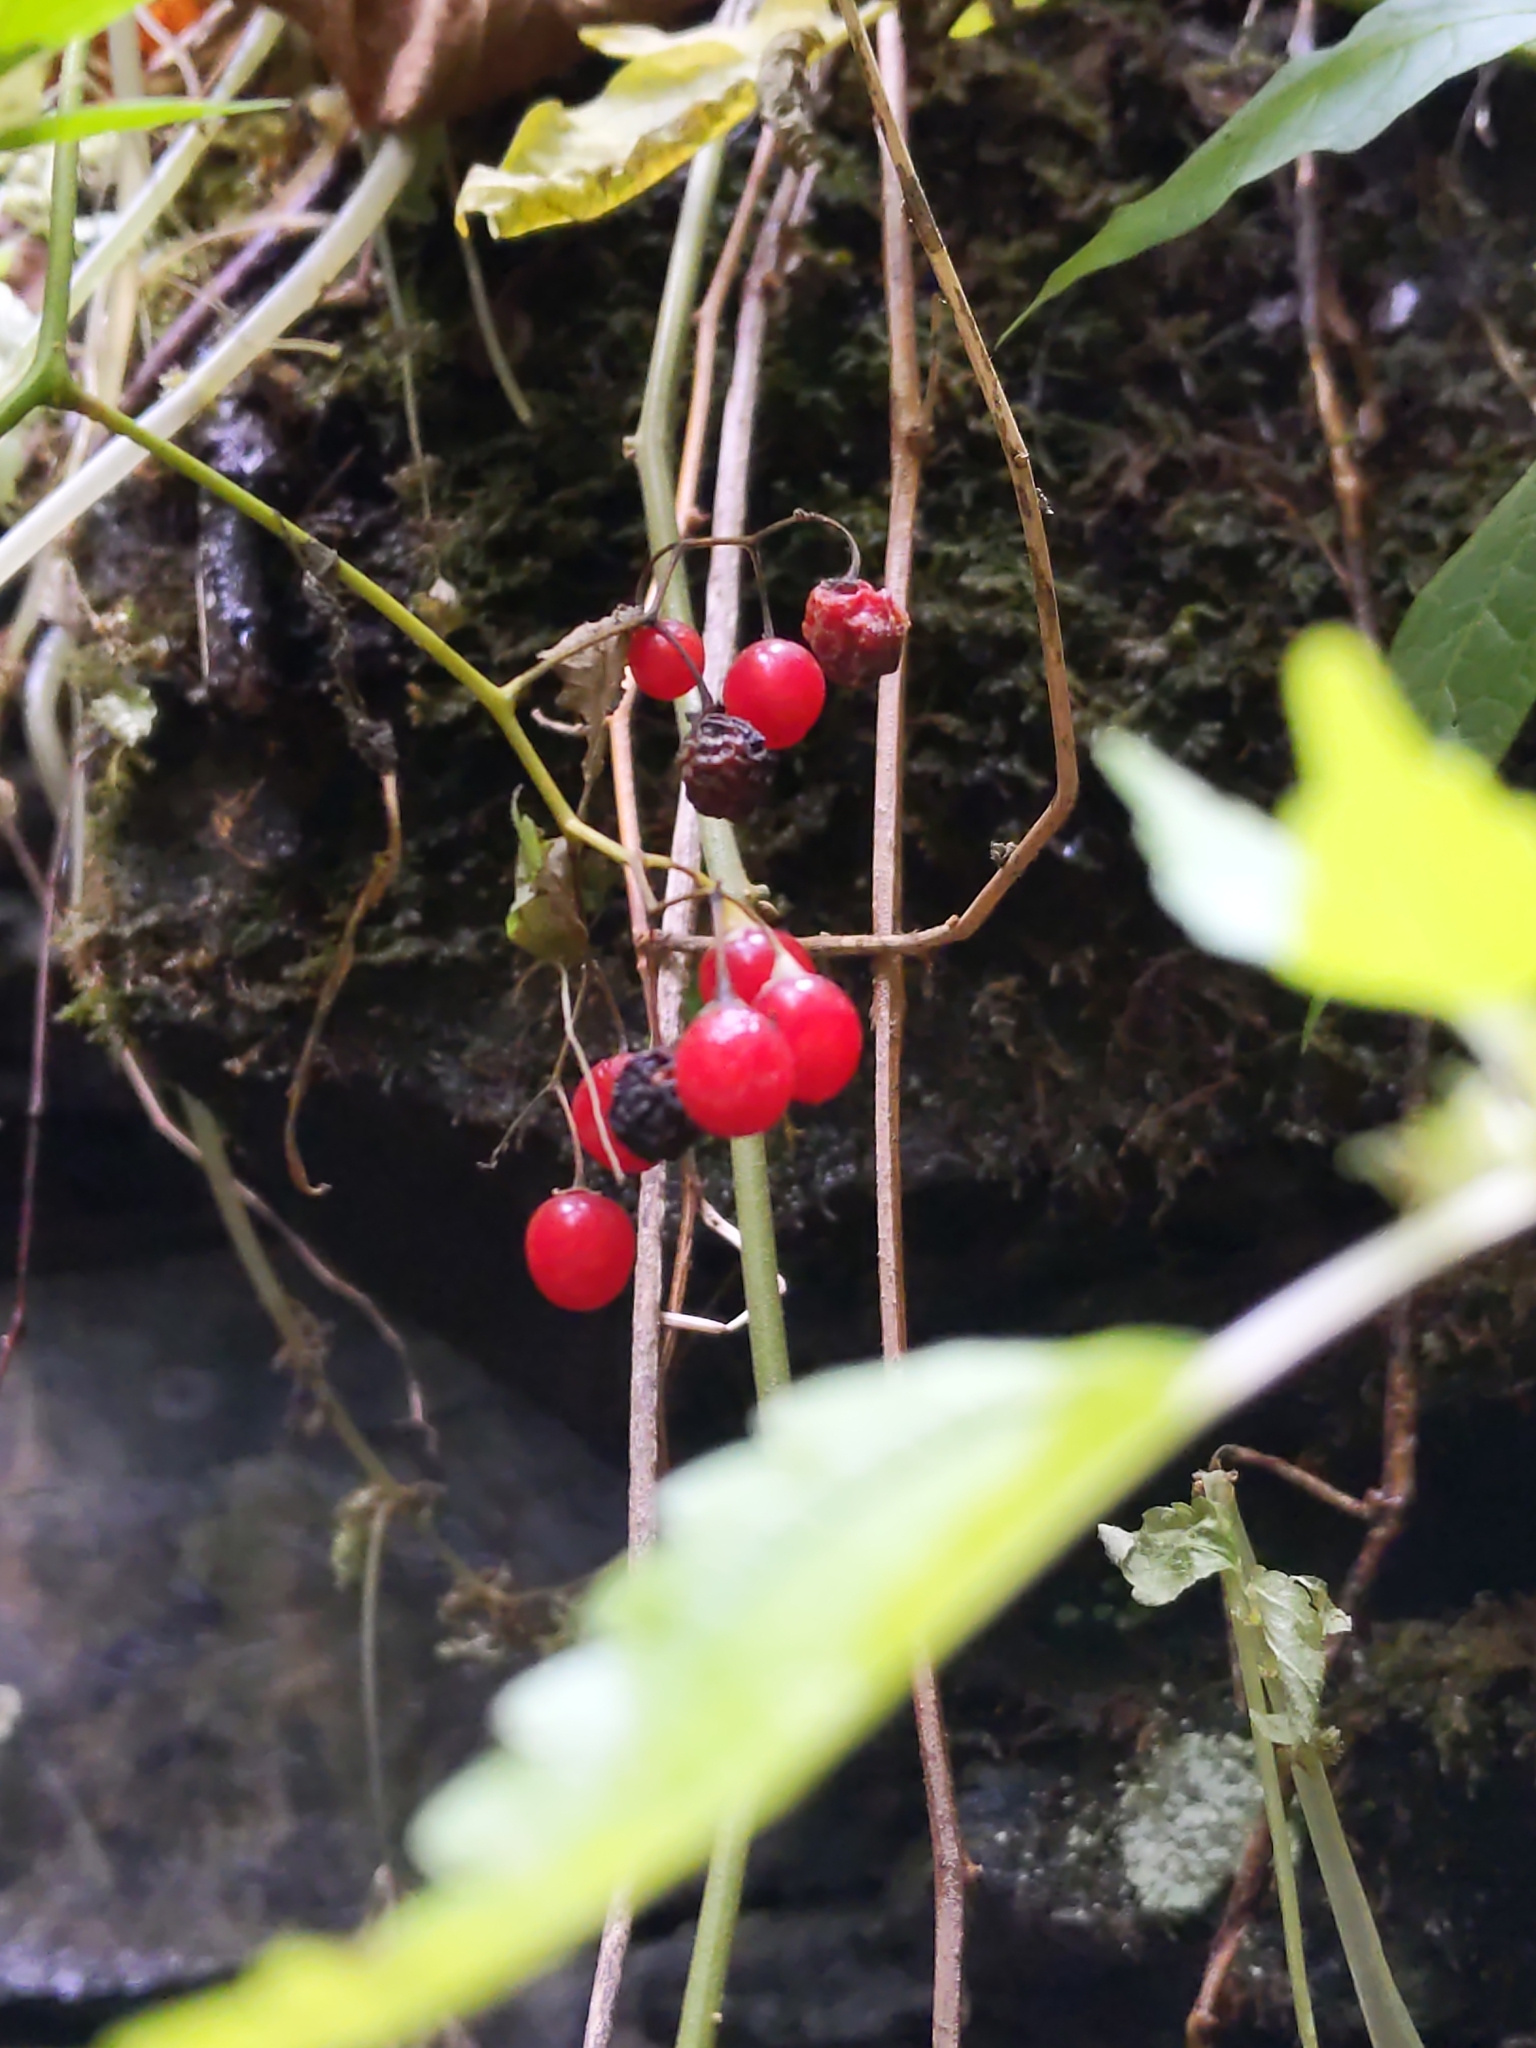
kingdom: Plantae
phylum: Tracheophyta
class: Magnoliopsida
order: Solanales
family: Solanaceae
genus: Solanum
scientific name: Solanum dulcamara
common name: Climbing nightshade
